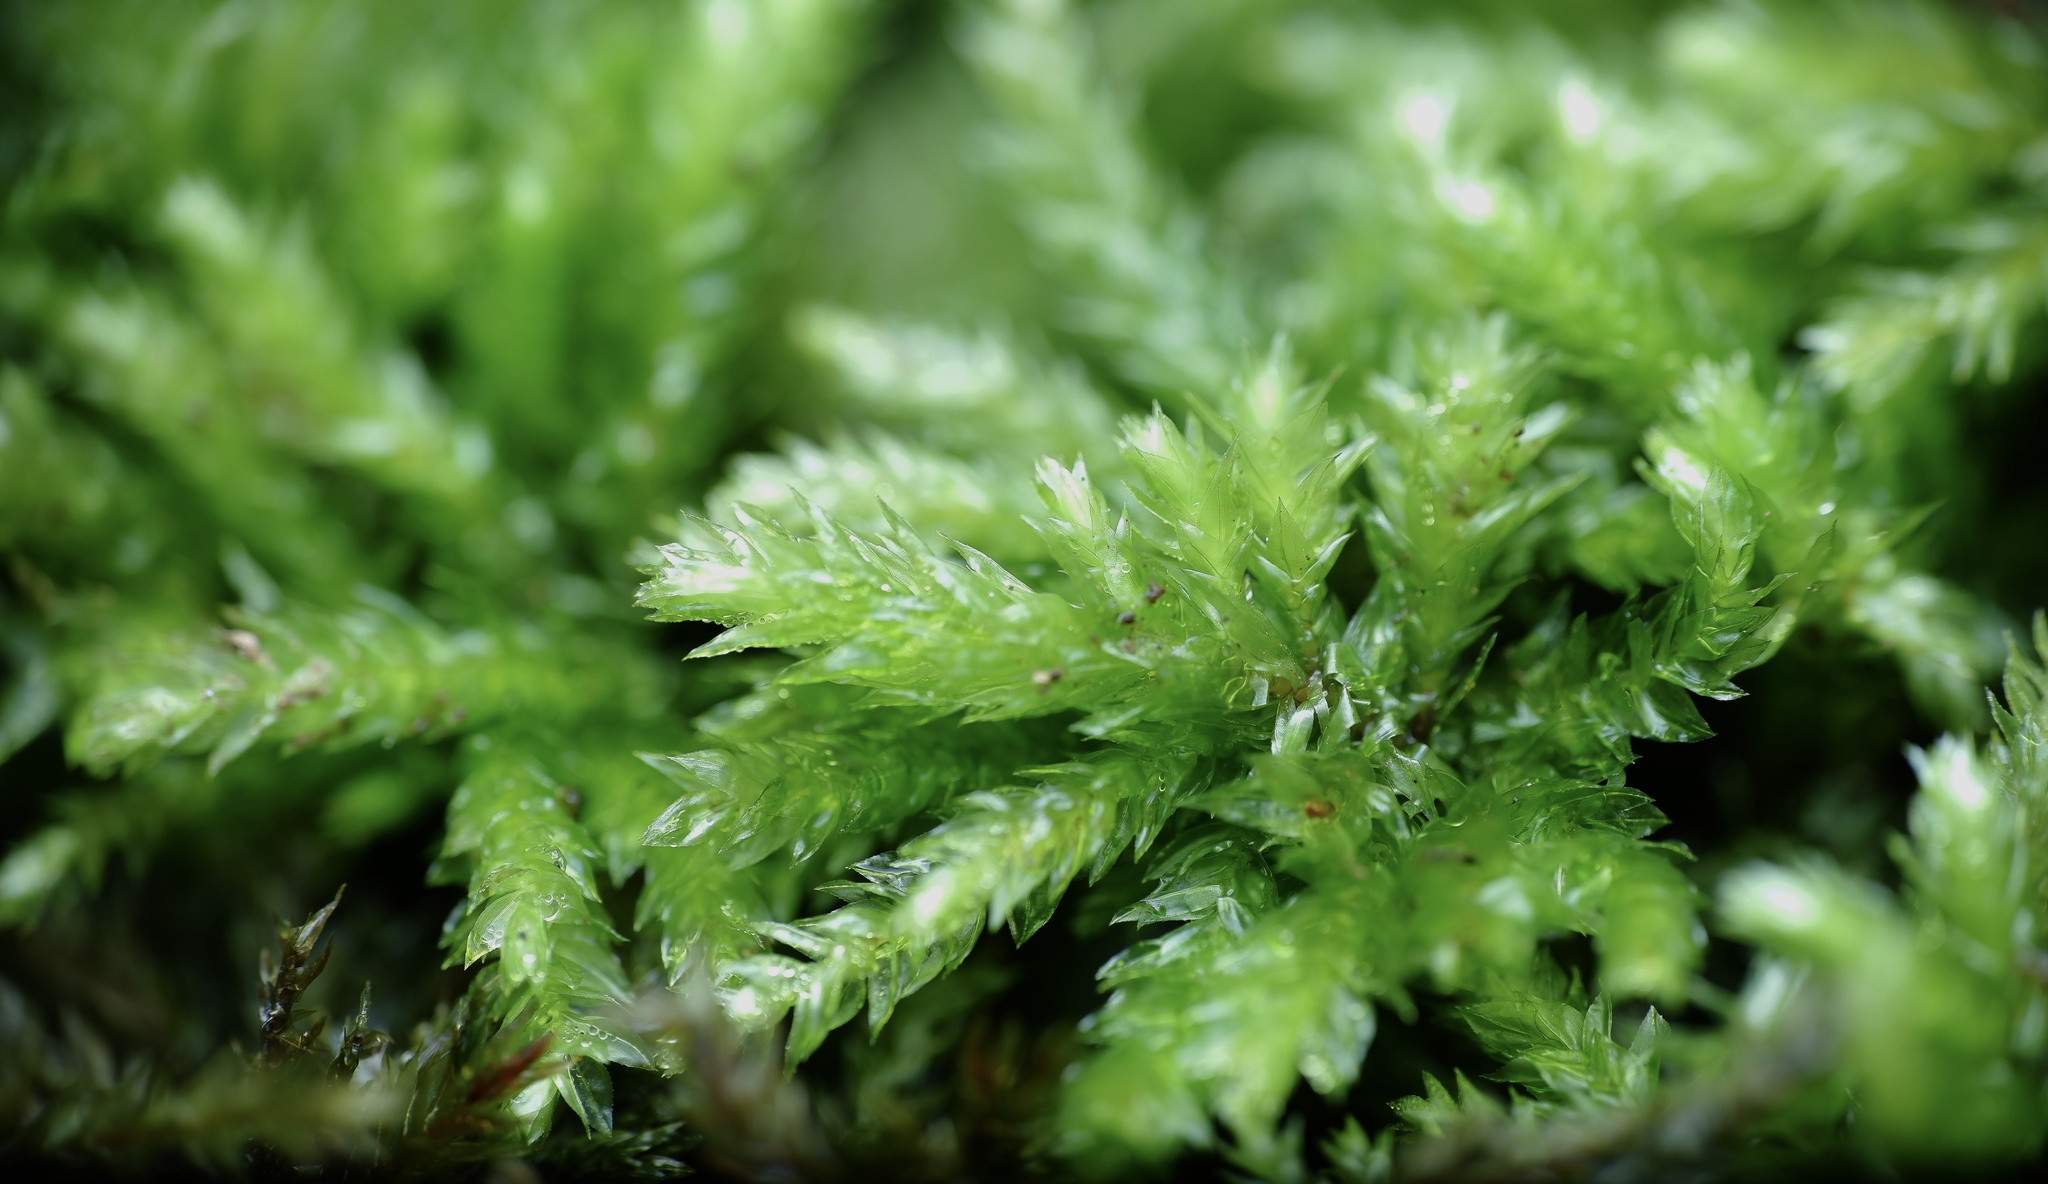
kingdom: Plantae
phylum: Bryophyta
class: Bryopsida
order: Hypnodendrales
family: Spiridentaceae
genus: Hypnodendron
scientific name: Hypnodendron vitiense
